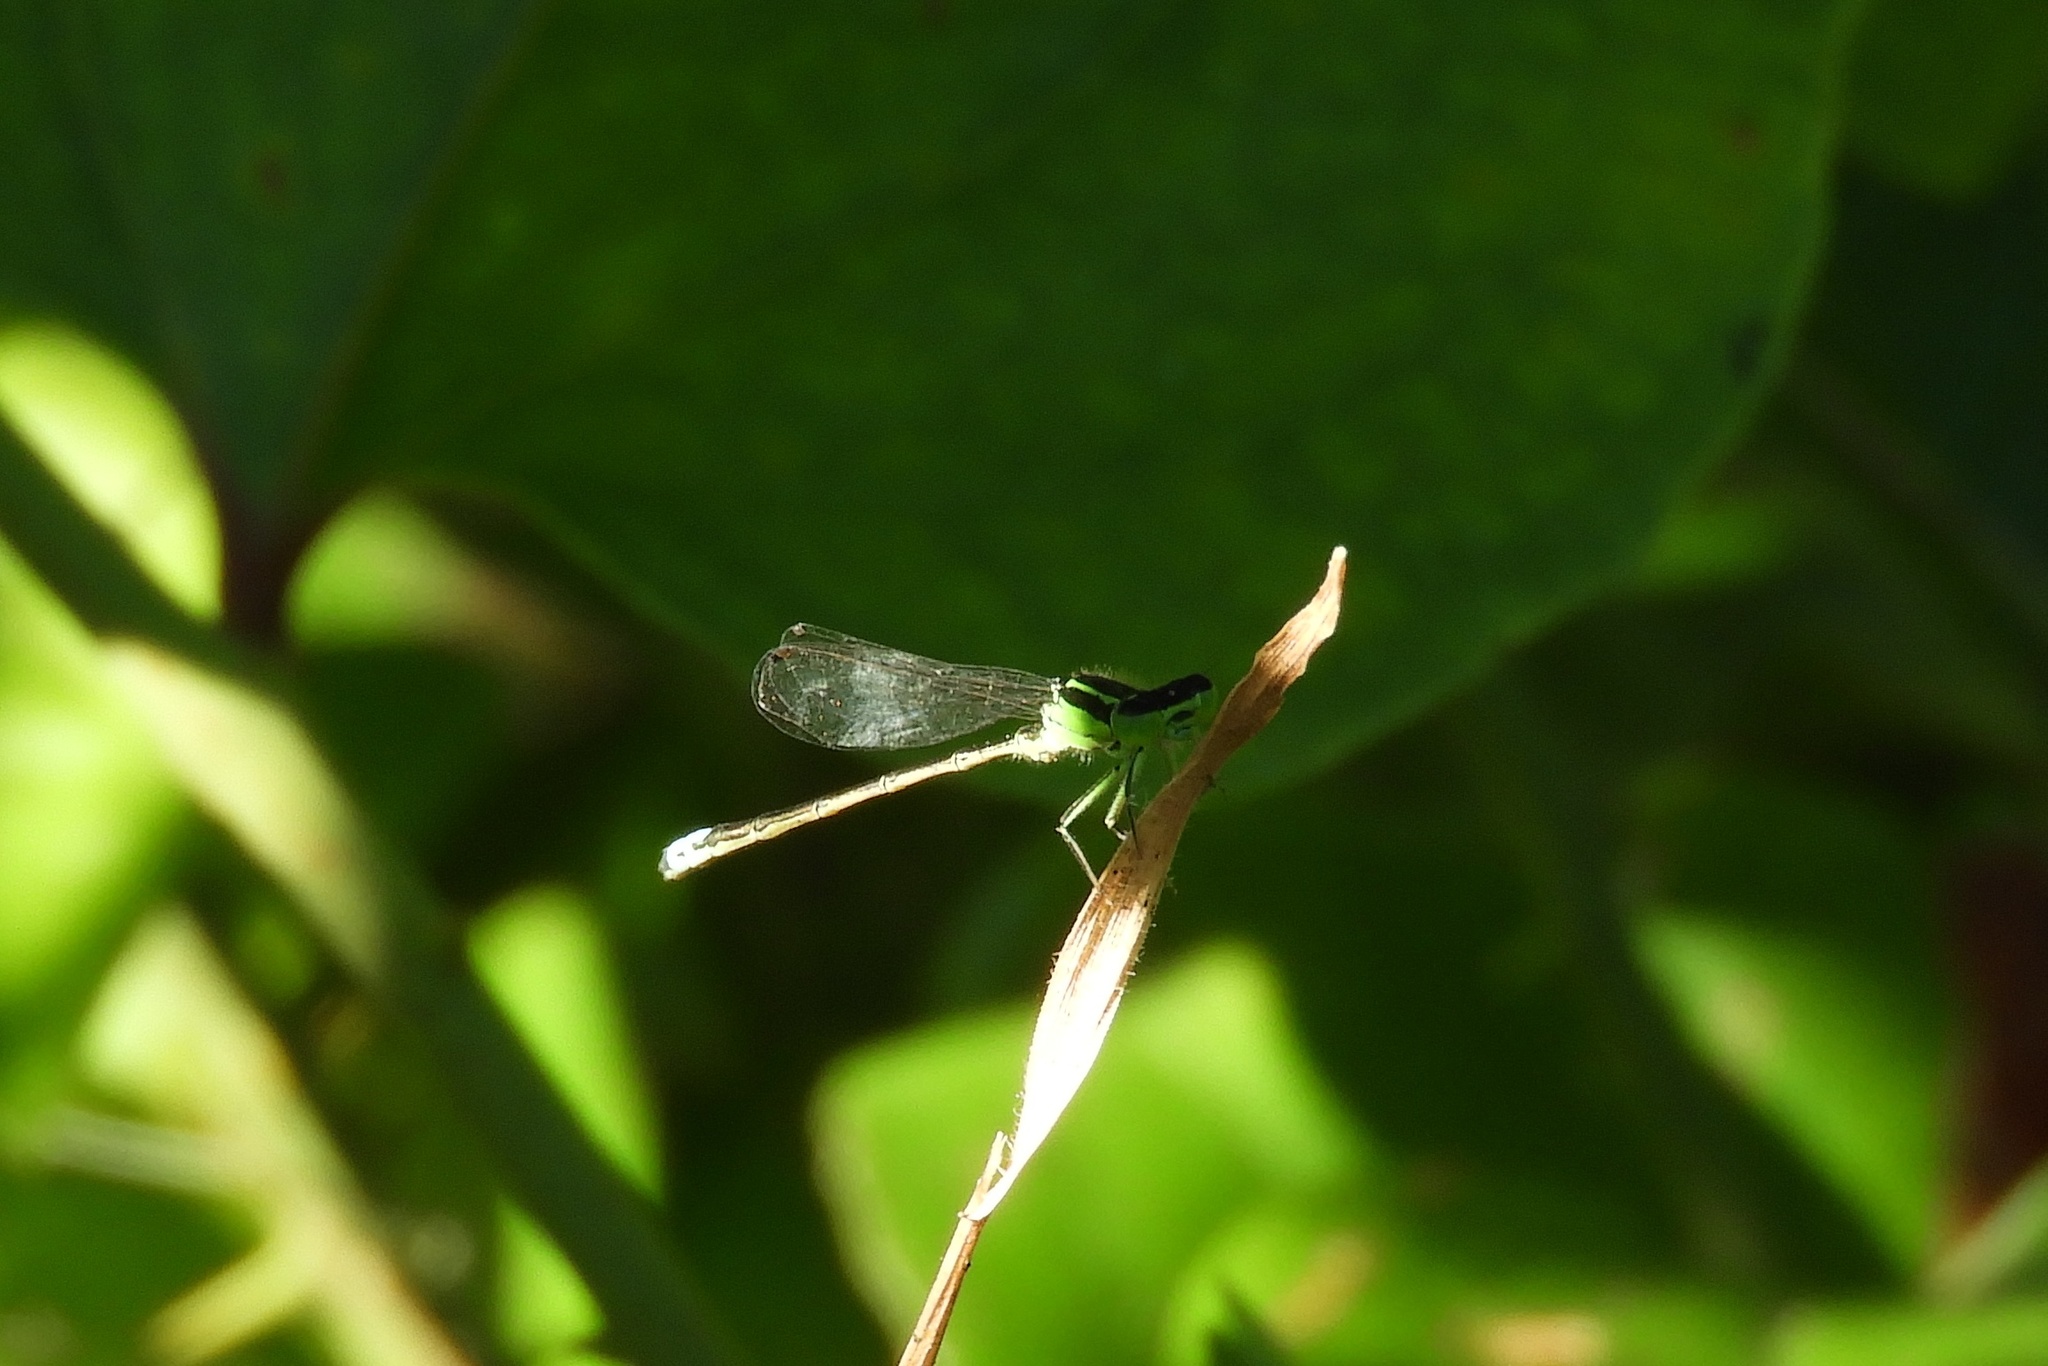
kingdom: Animalia
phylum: Arthropoda
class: Insecta
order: Odonata
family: Coenagrionidae
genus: Ischnura
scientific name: Ischnura verticalis
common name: Eastern forktail
